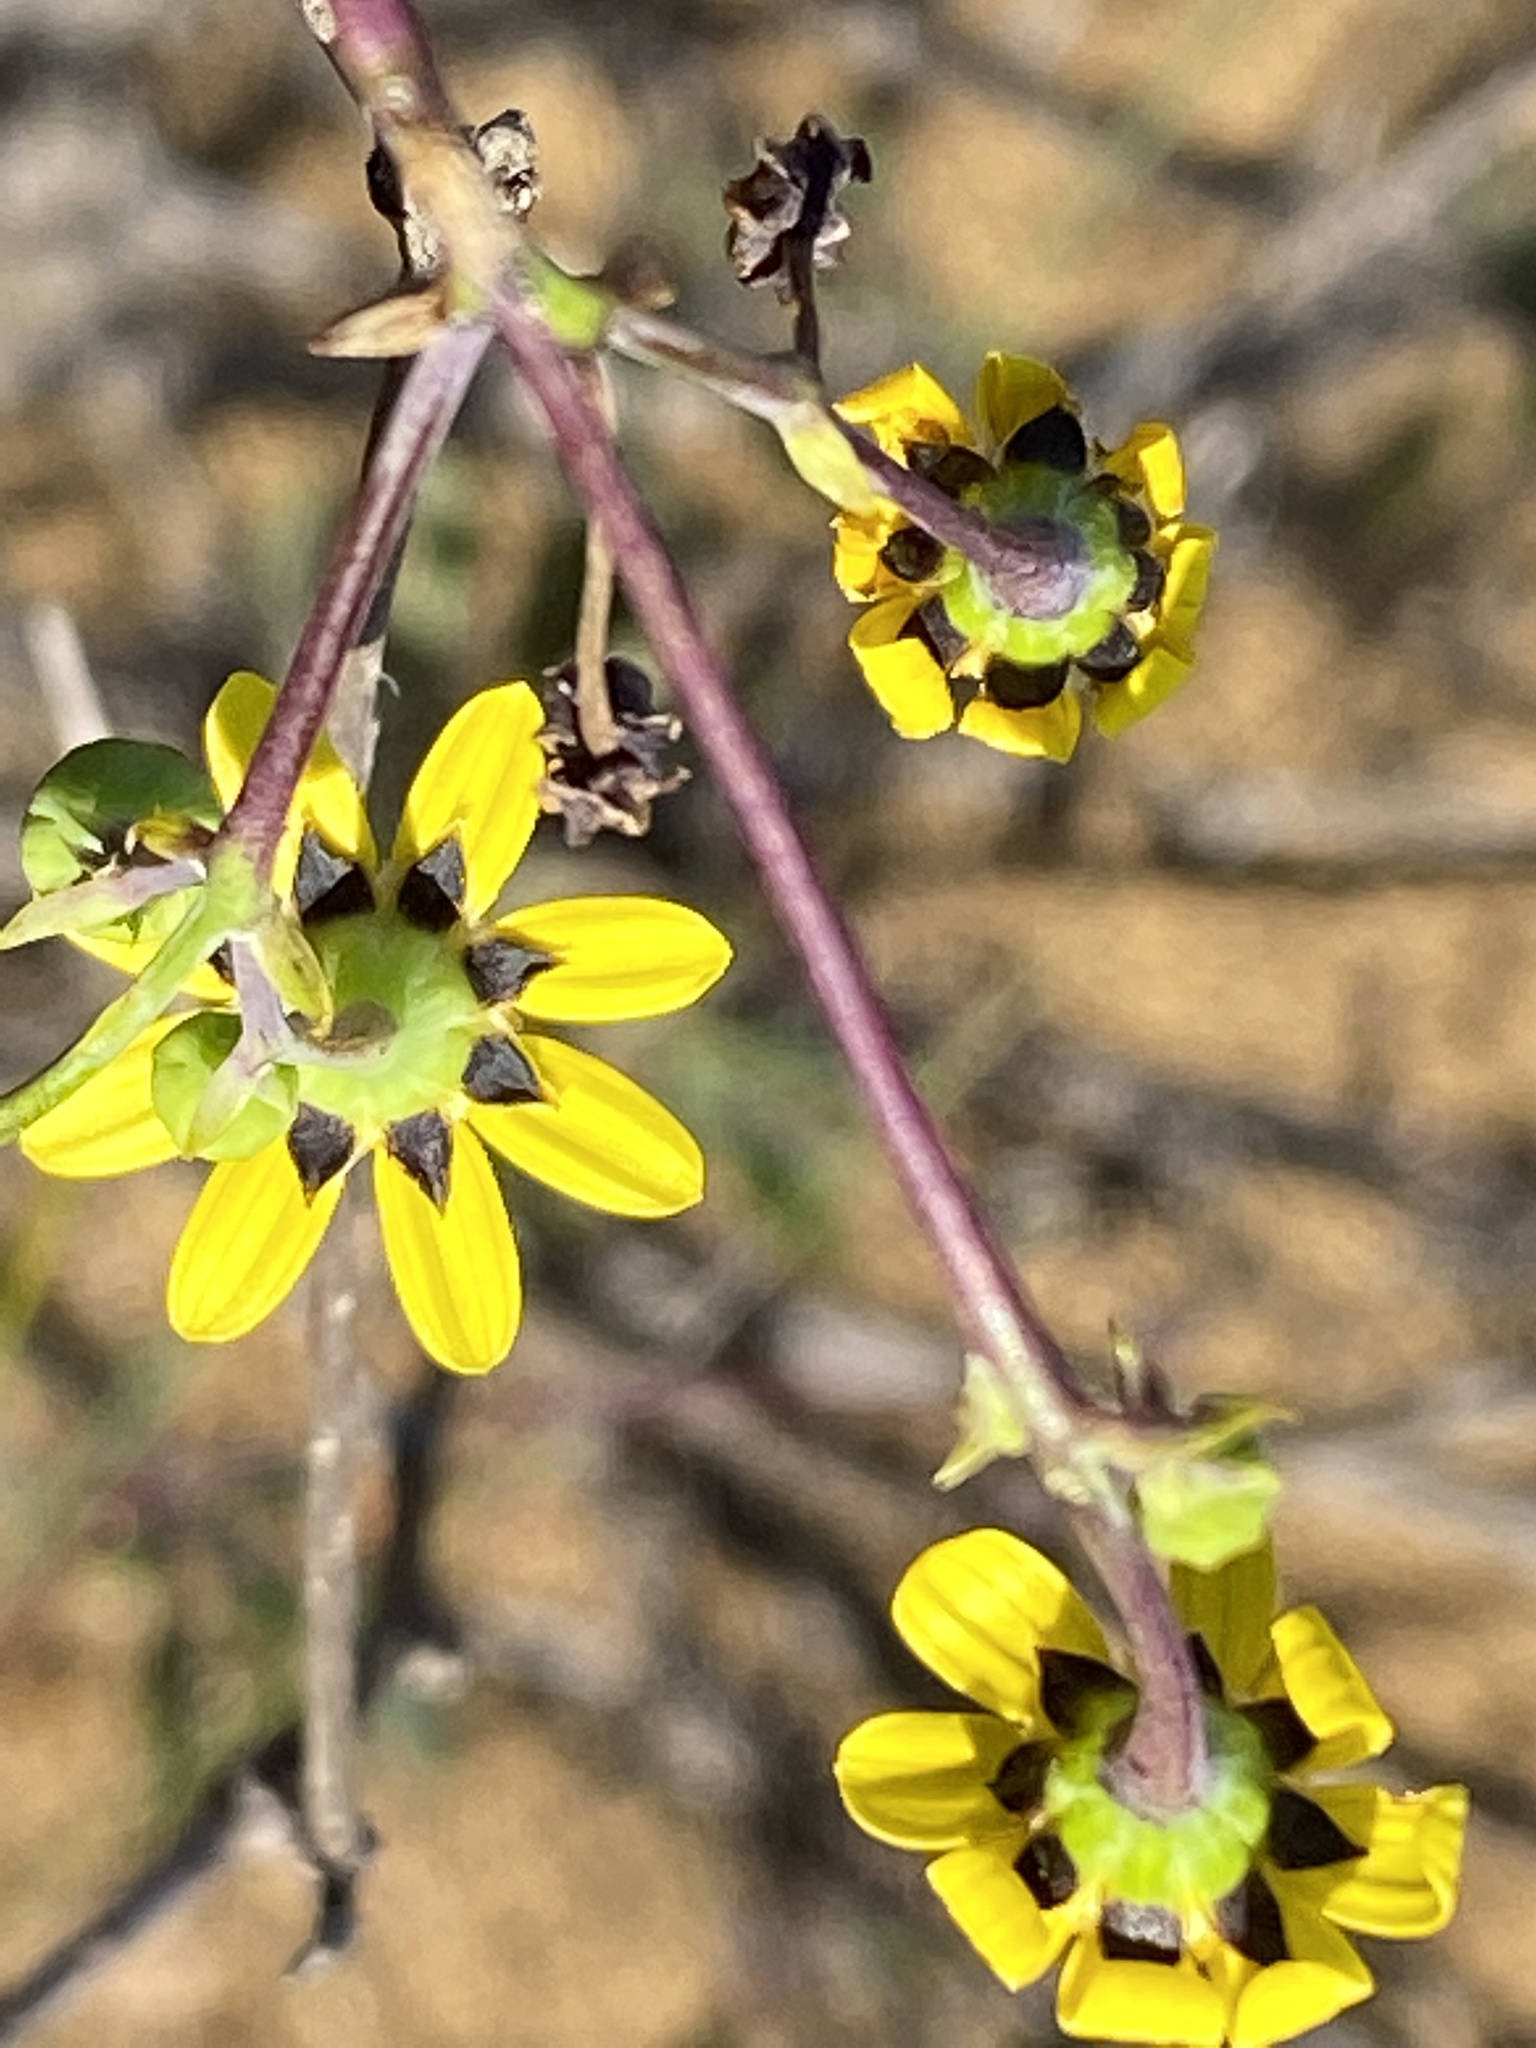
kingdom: Plantae
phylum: Tracheophyta
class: Magnoliopsida
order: Asterales
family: Asteraceae
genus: Othonna
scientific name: Othonna quinquedentata
